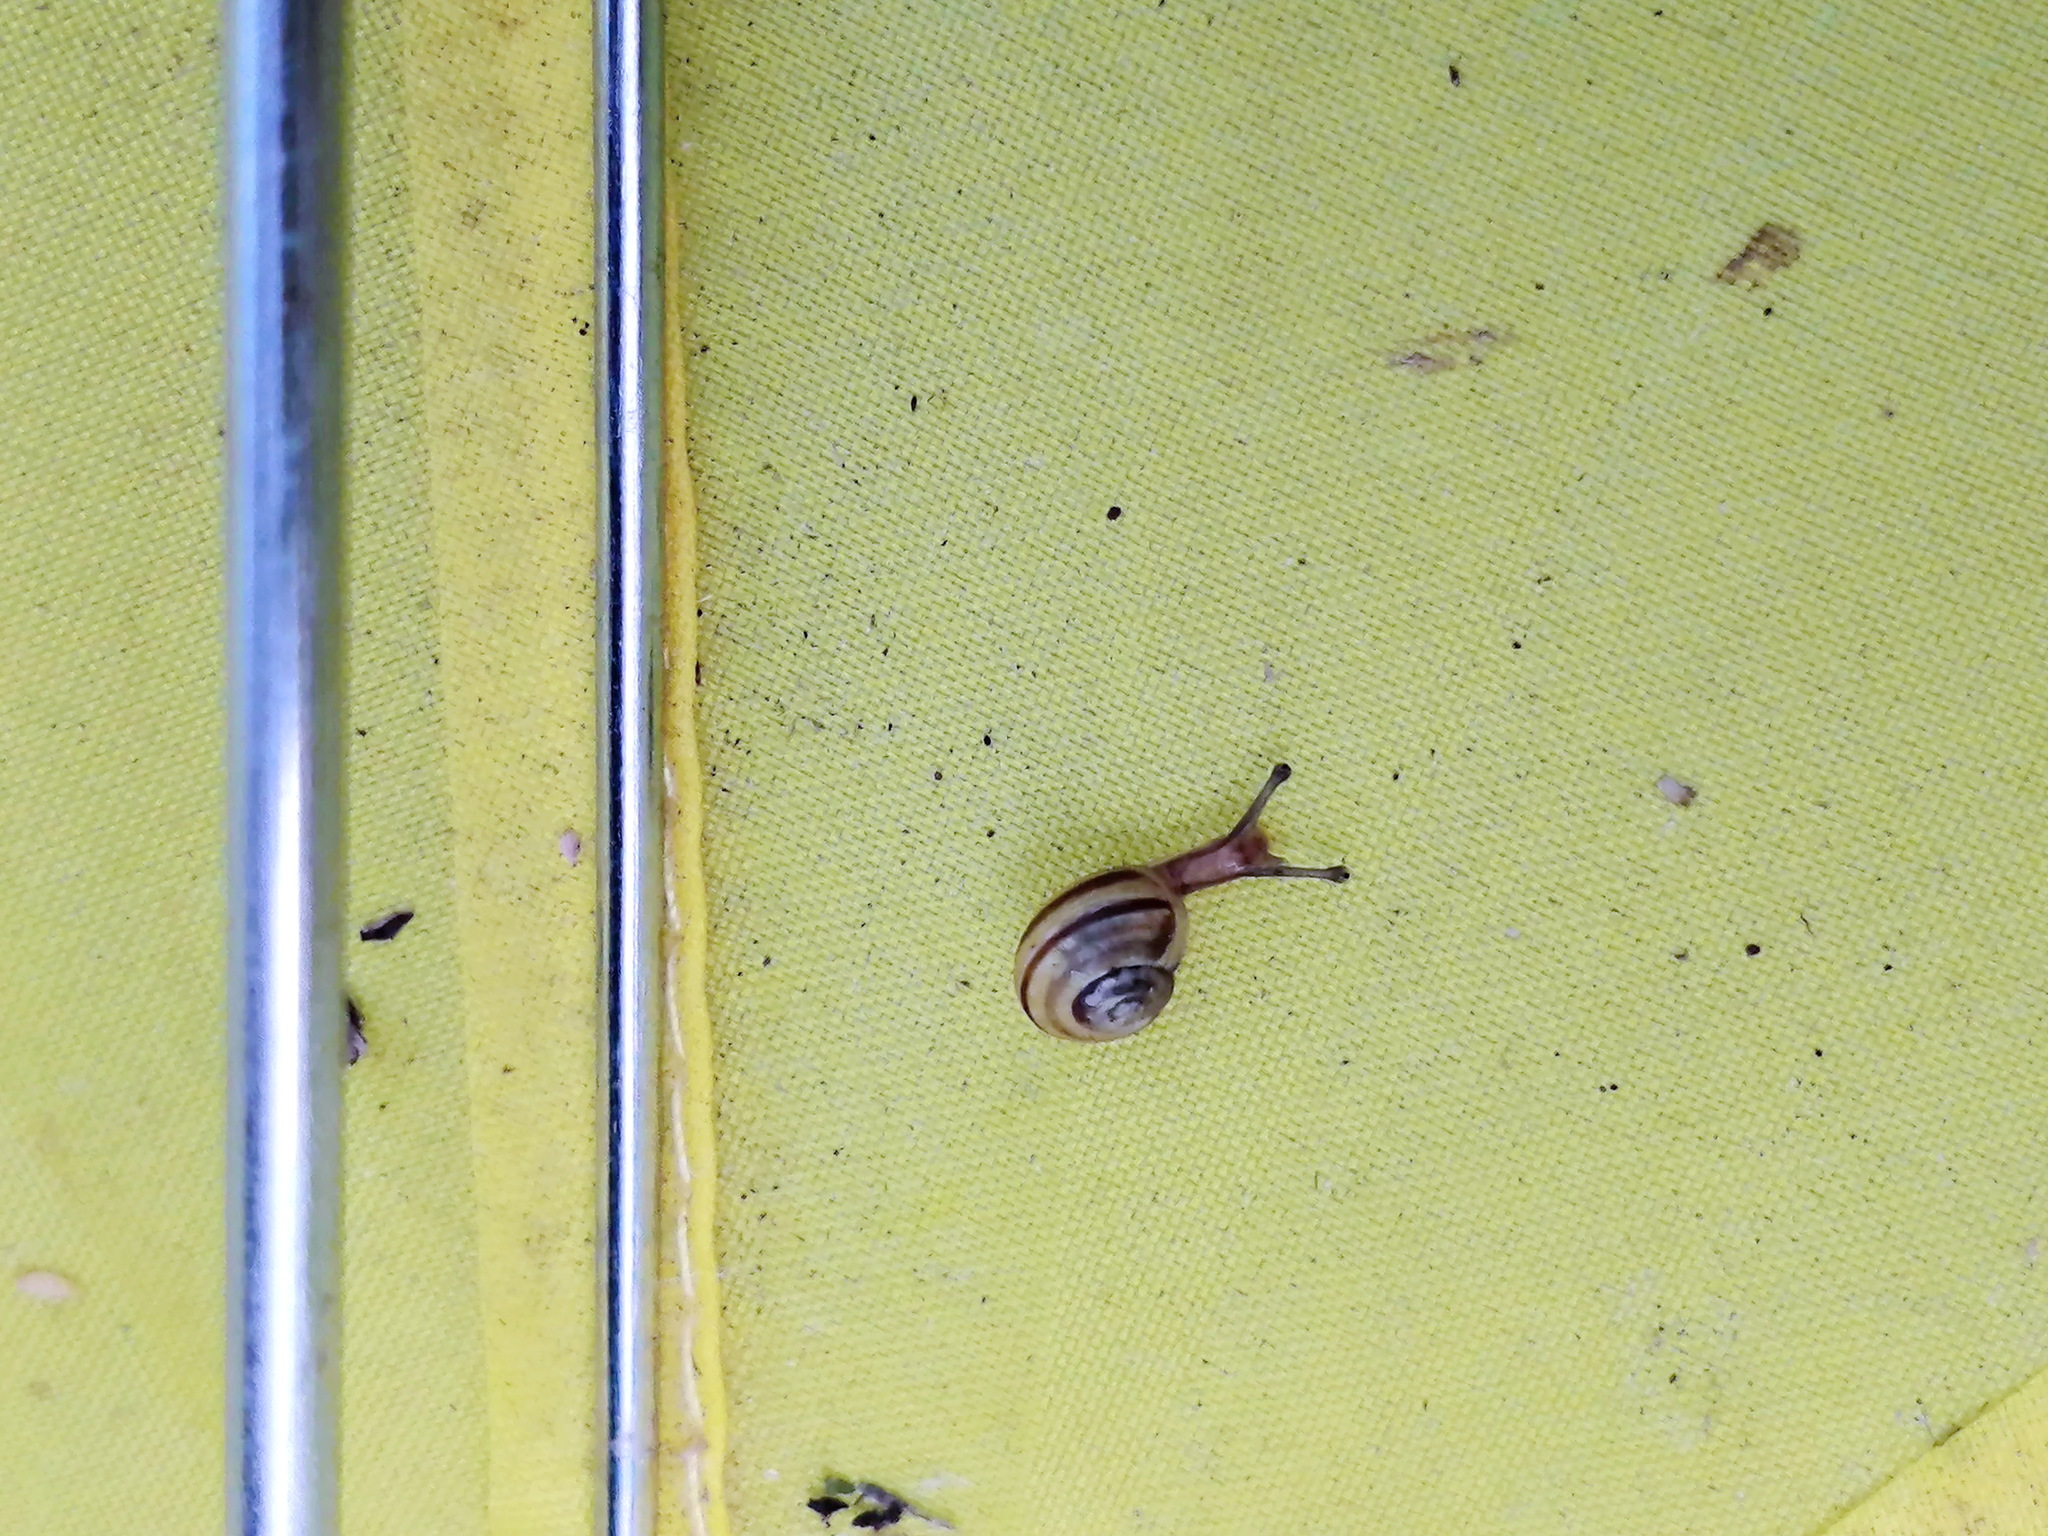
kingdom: Animalia
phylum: Mollusca
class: Gastropoda
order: Stylommatophora
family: Helicidae
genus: Cepaea
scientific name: Cepaea
